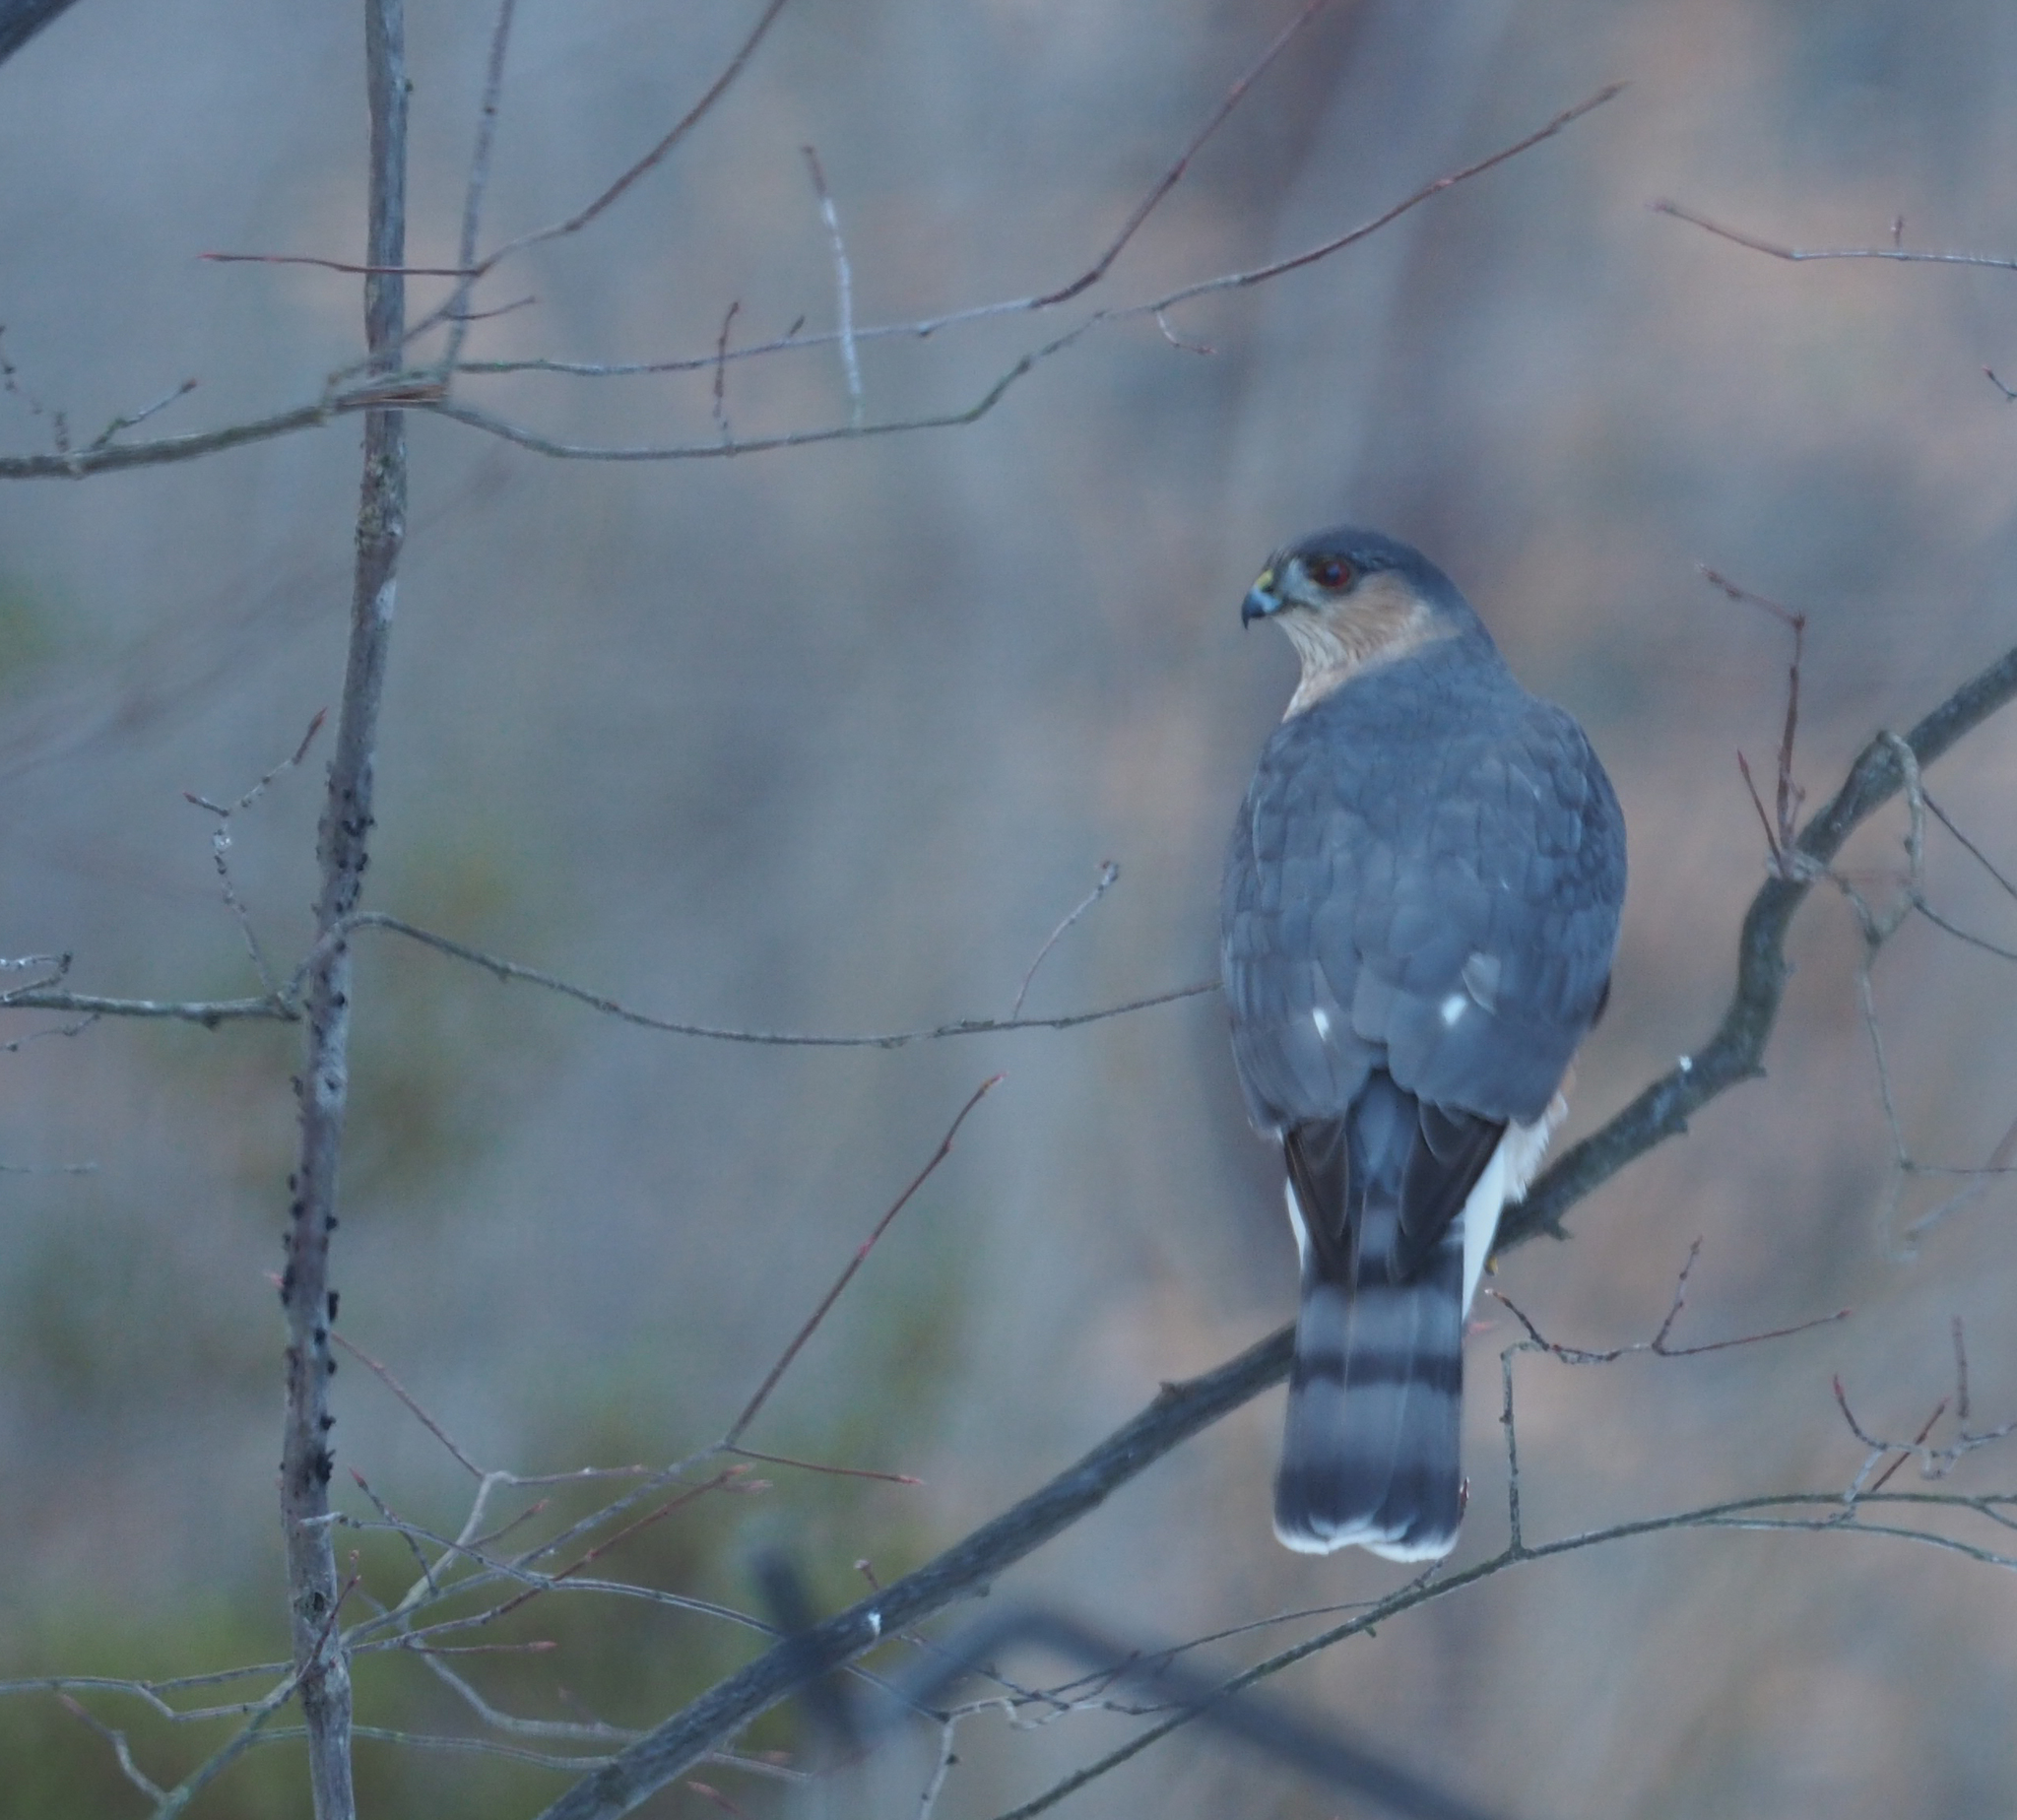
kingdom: Animalia
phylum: Chordata
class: Aves
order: Accipitriformes
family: Accipitridae
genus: Accipiter
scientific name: Accipiter striatus
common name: Sharp-shinned hawk
